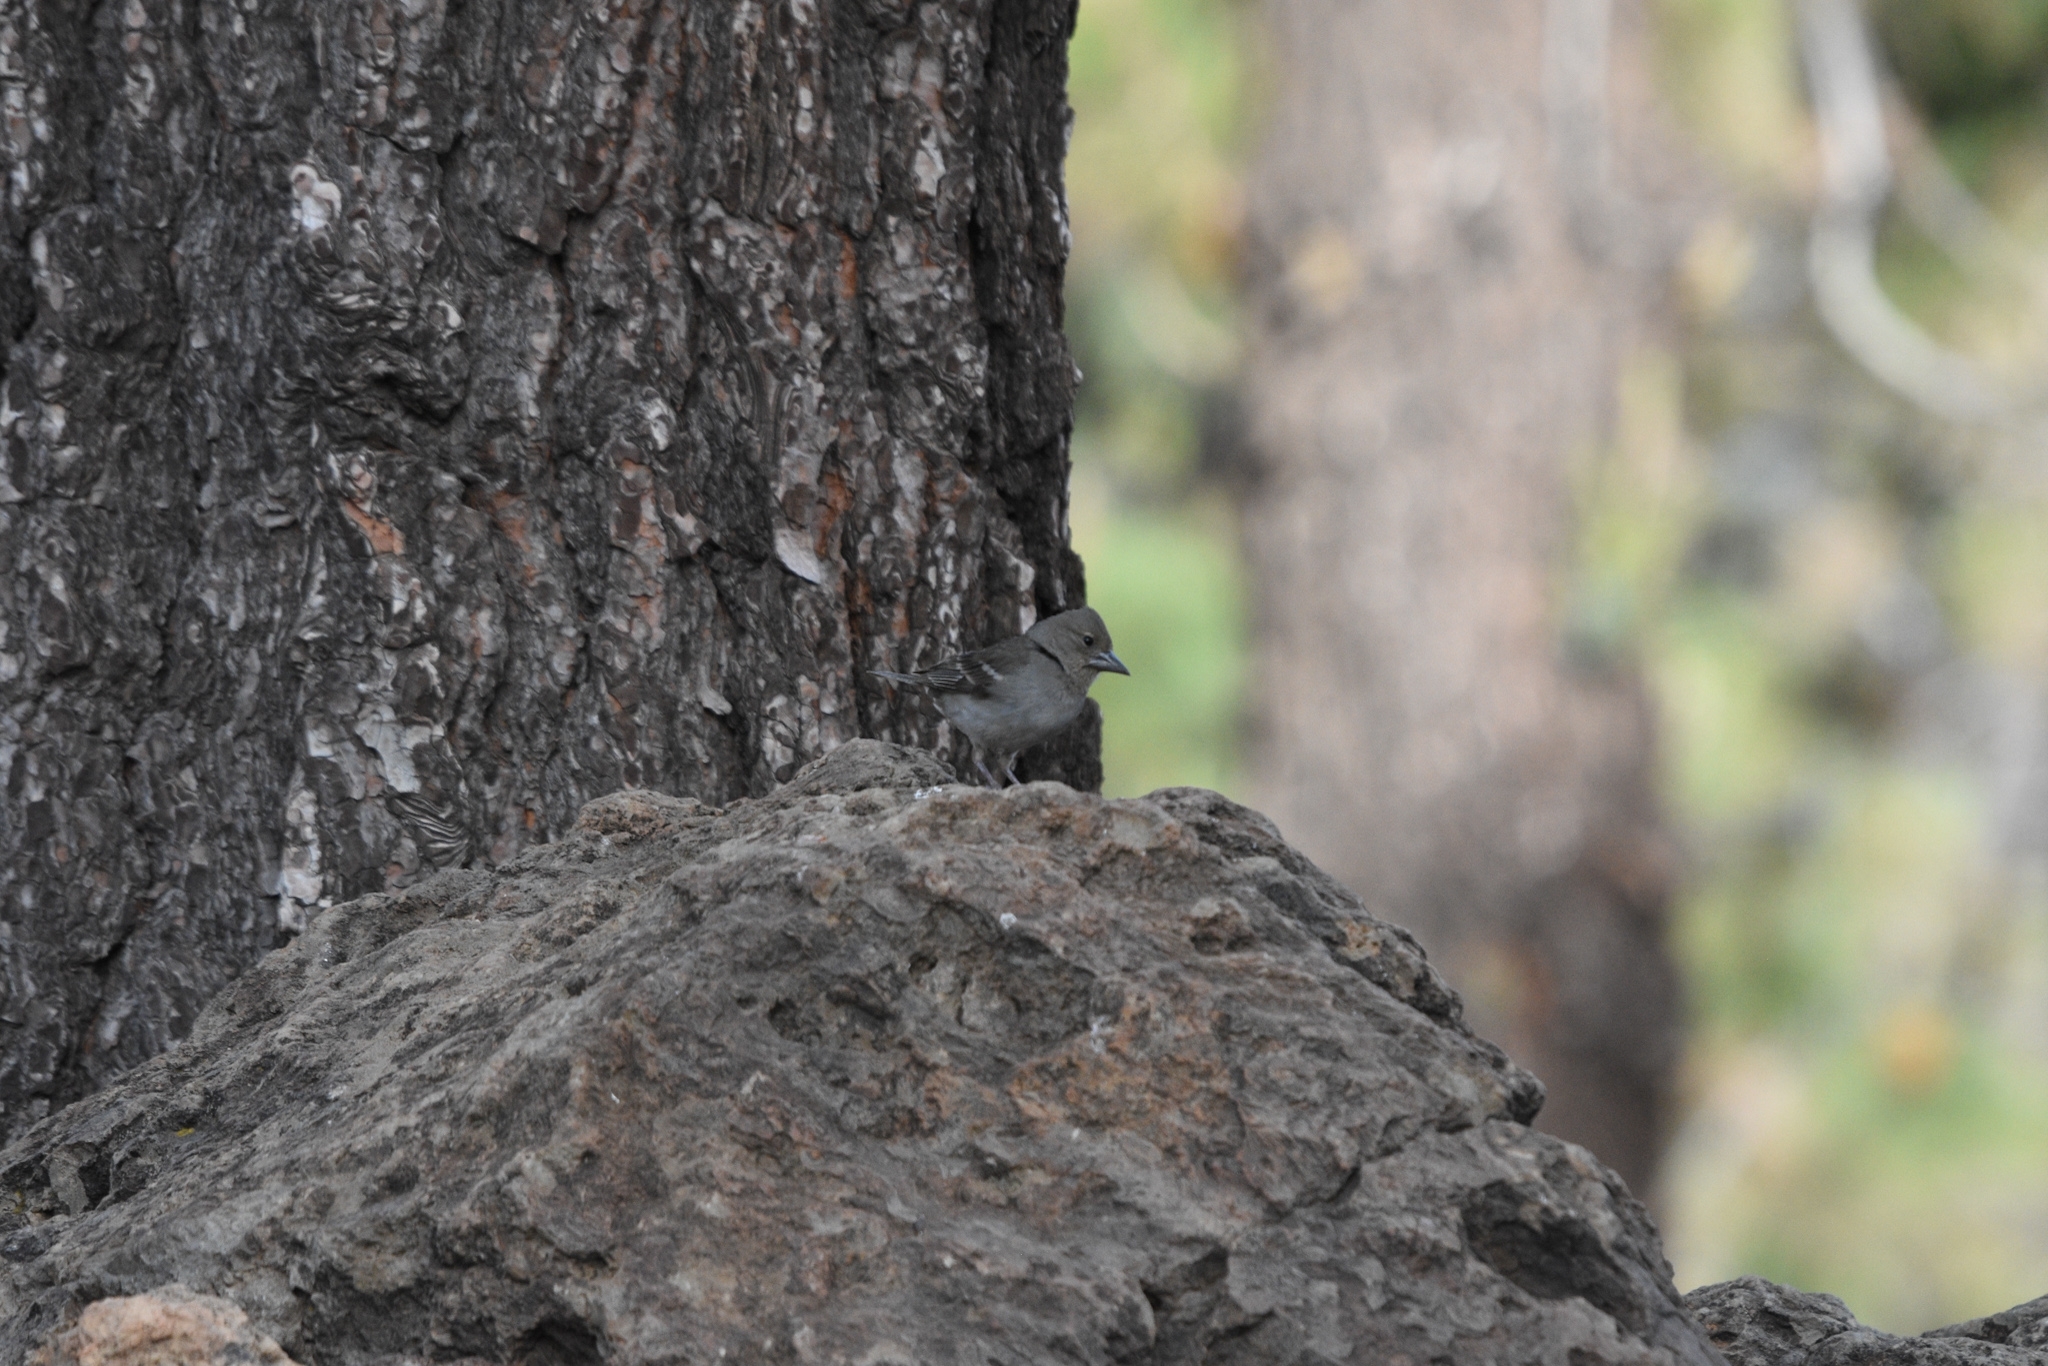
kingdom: Animalia
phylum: Chordata
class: Aves
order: Passeriformes
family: Fringillidae
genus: Fringilla
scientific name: Fringilla teydea
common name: Blue chaffinch
